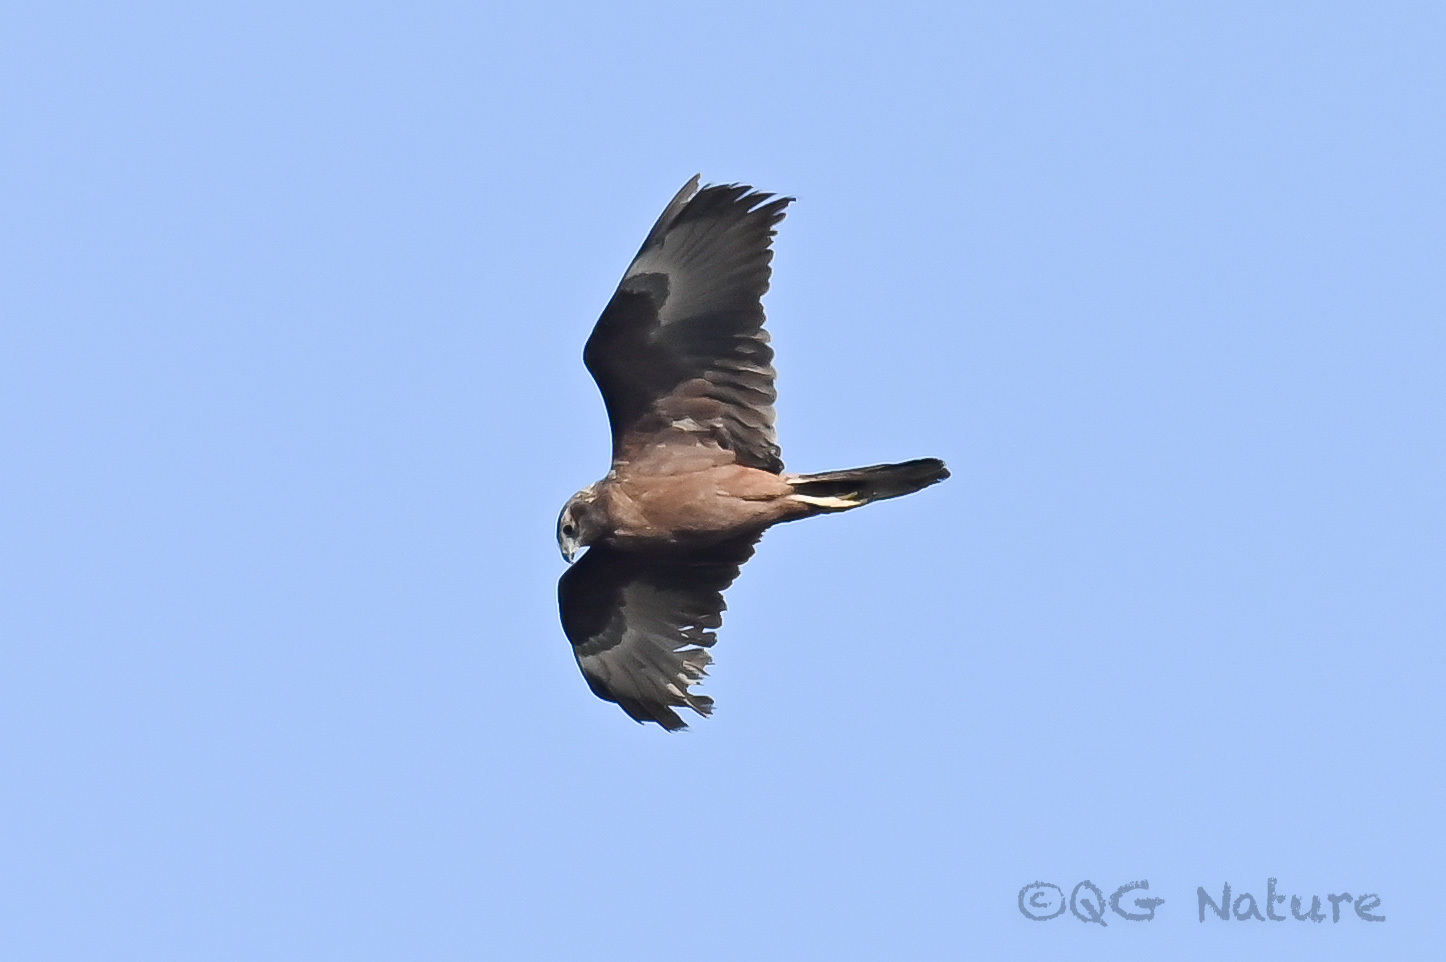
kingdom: Animalia
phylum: Chordata
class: Aves
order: Accipitriformes
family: Accipitridae
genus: Circus
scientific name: Circus spilonotus
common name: Eastern marsh-harrier
